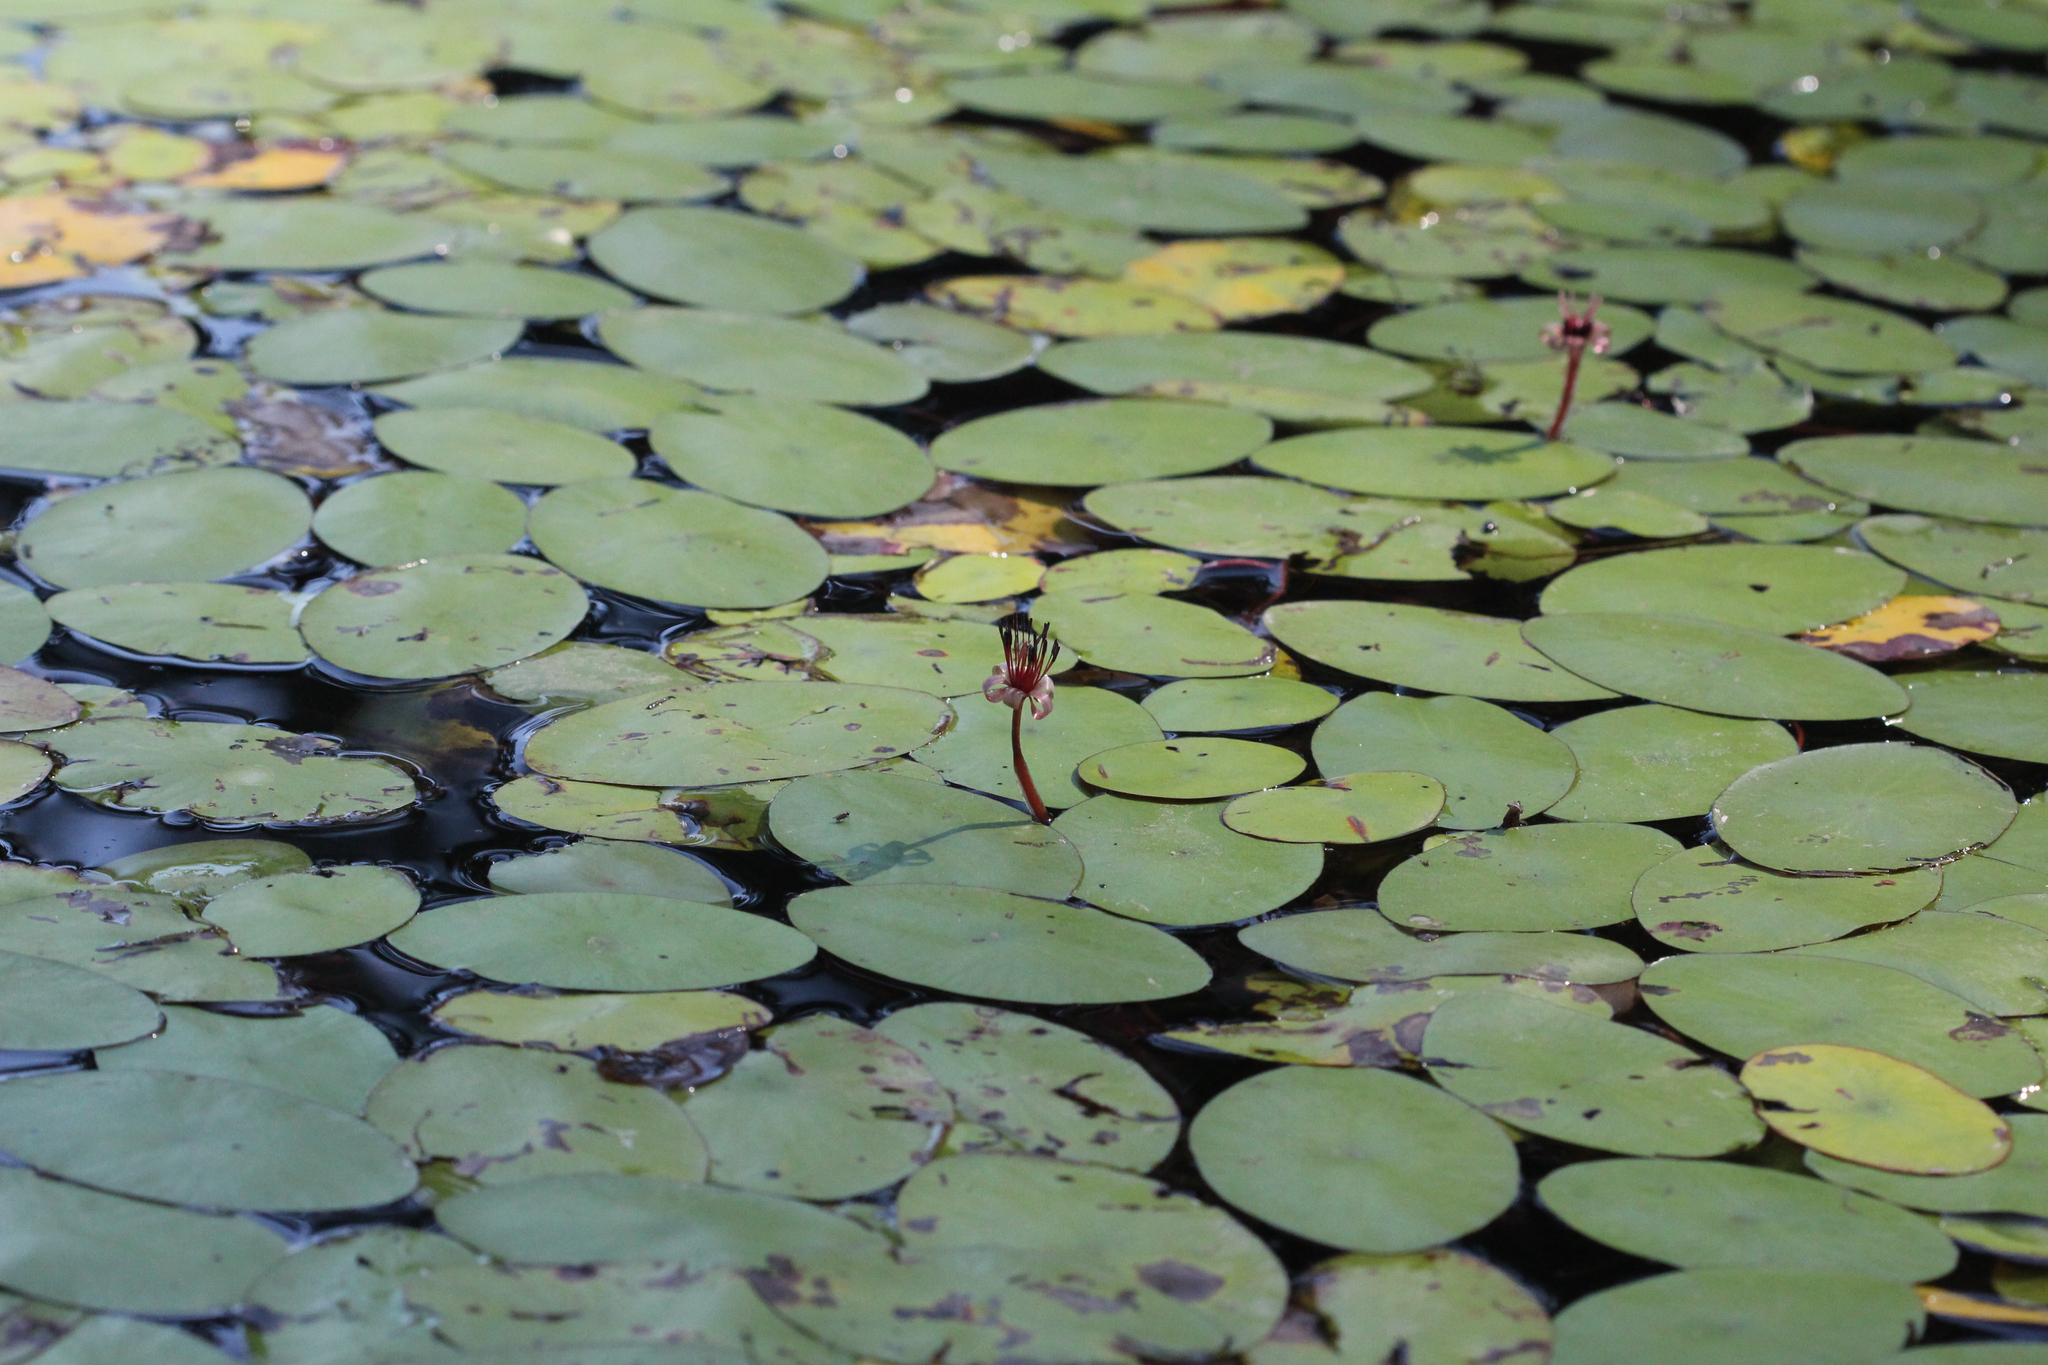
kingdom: Plantae
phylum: Tracheophyta
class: Magnoliopsida
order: Nymphaeales
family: Cabombaceae
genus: Brasenia
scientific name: Brasenia schreberi
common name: Water-shield
